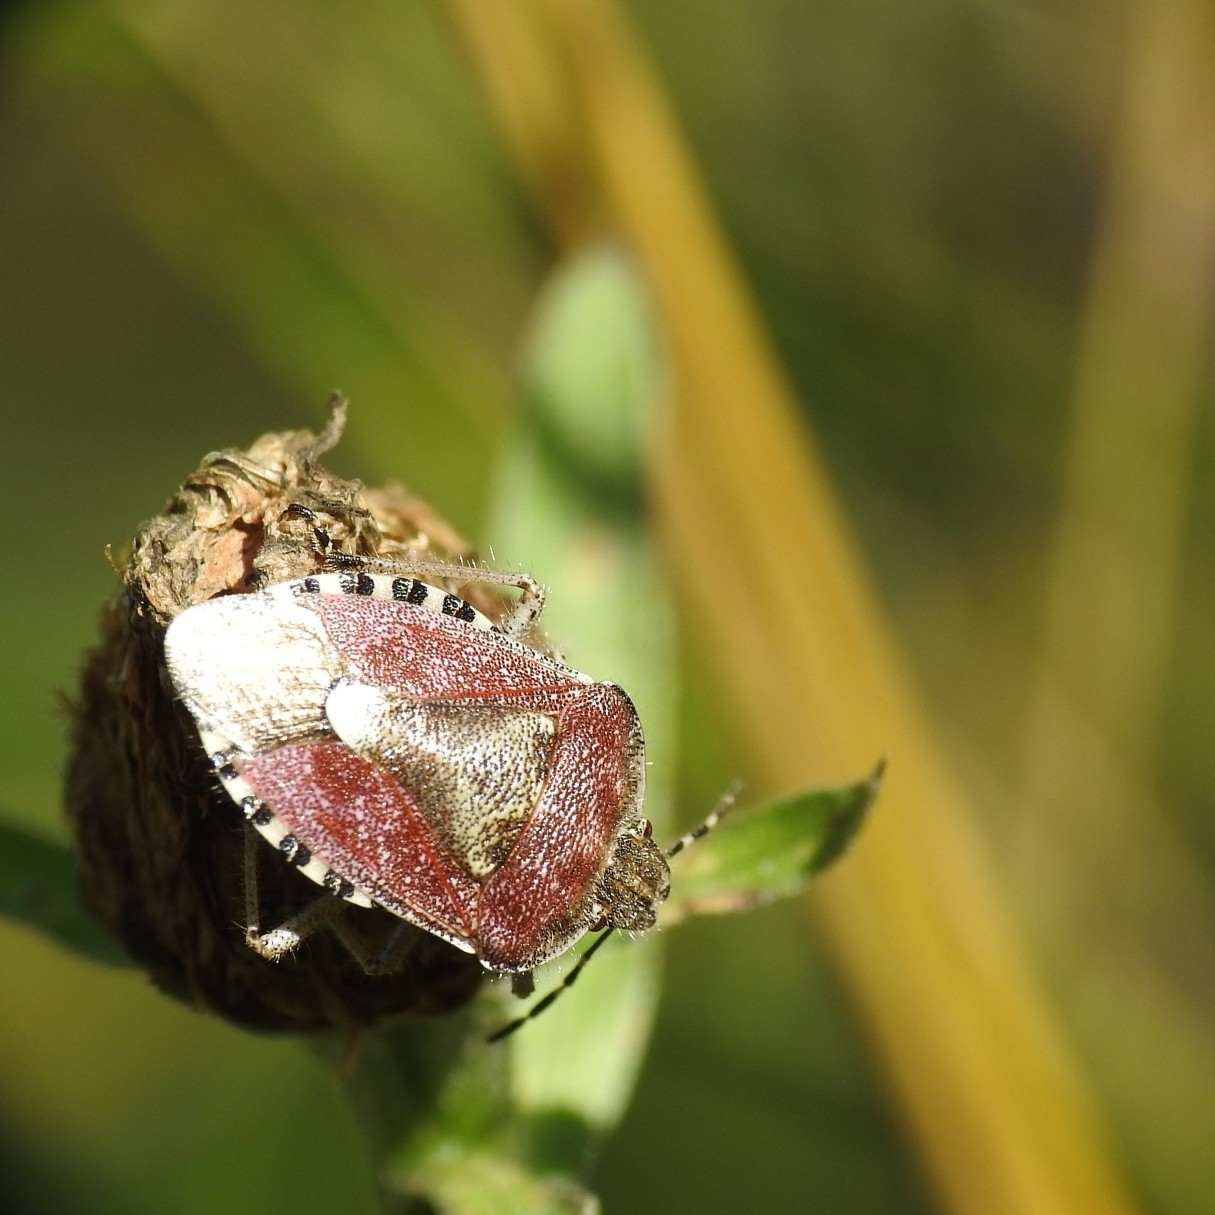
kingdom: Animalia
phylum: Arthropoda
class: Insecta
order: Hemiptera
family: Pentatomidae
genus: Dolycoris
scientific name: Dolycoris baccarum
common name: Sloe bug
